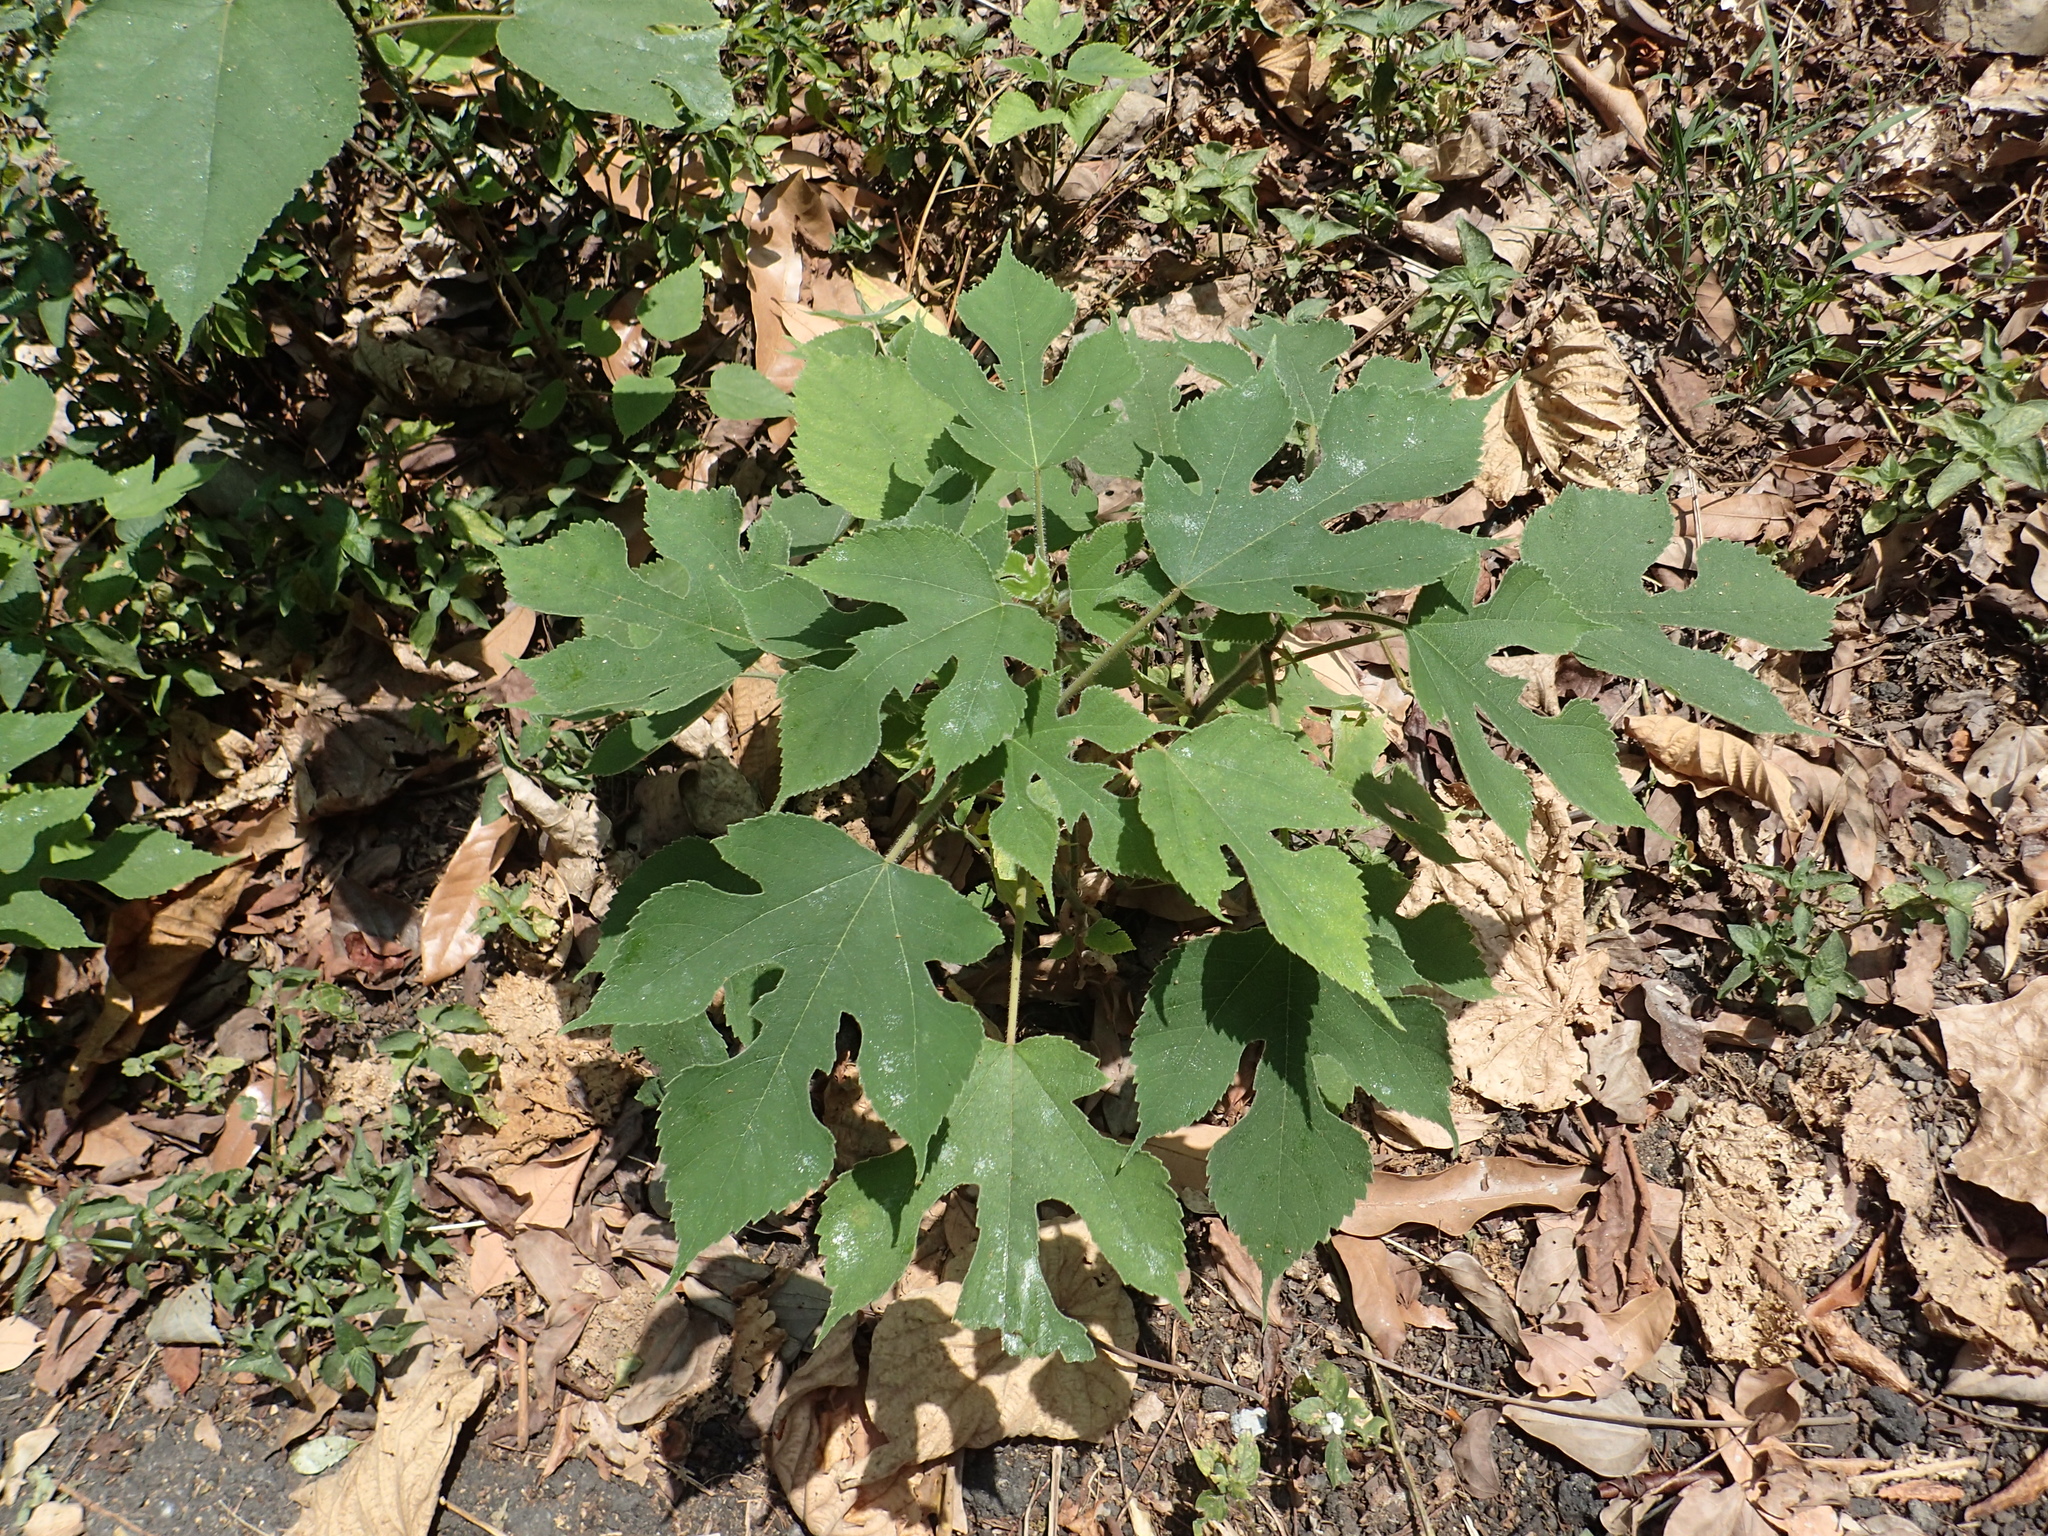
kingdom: Plantae
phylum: Tracheophyta
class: Magnoliopsida
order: Rosales
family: Moraceae
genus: Broussonetia
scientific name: Broussonetia papyrifera
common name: Paper mulberry
